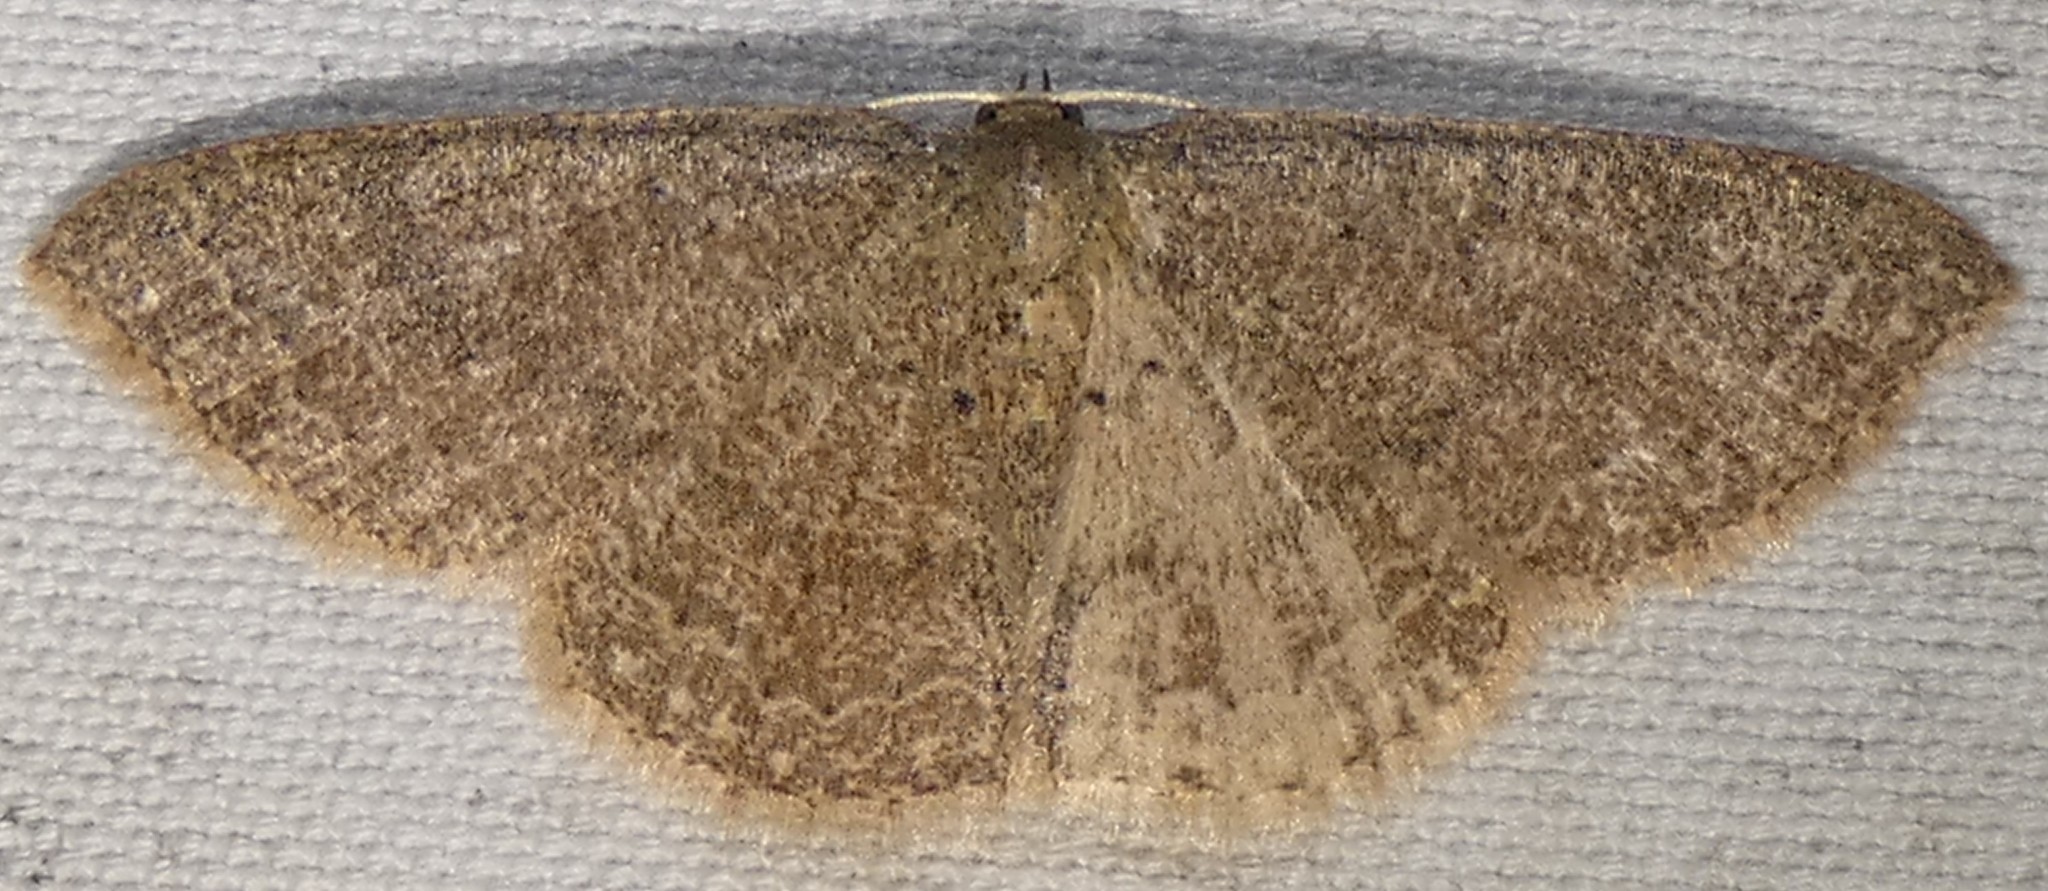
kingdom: Animalia
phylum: Arthropoda
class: Insecta
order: Lepidoptera
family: Geometridae
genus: Pleuroprucha
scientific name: Pleuroprucha insulsaria
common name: Common tan wave
